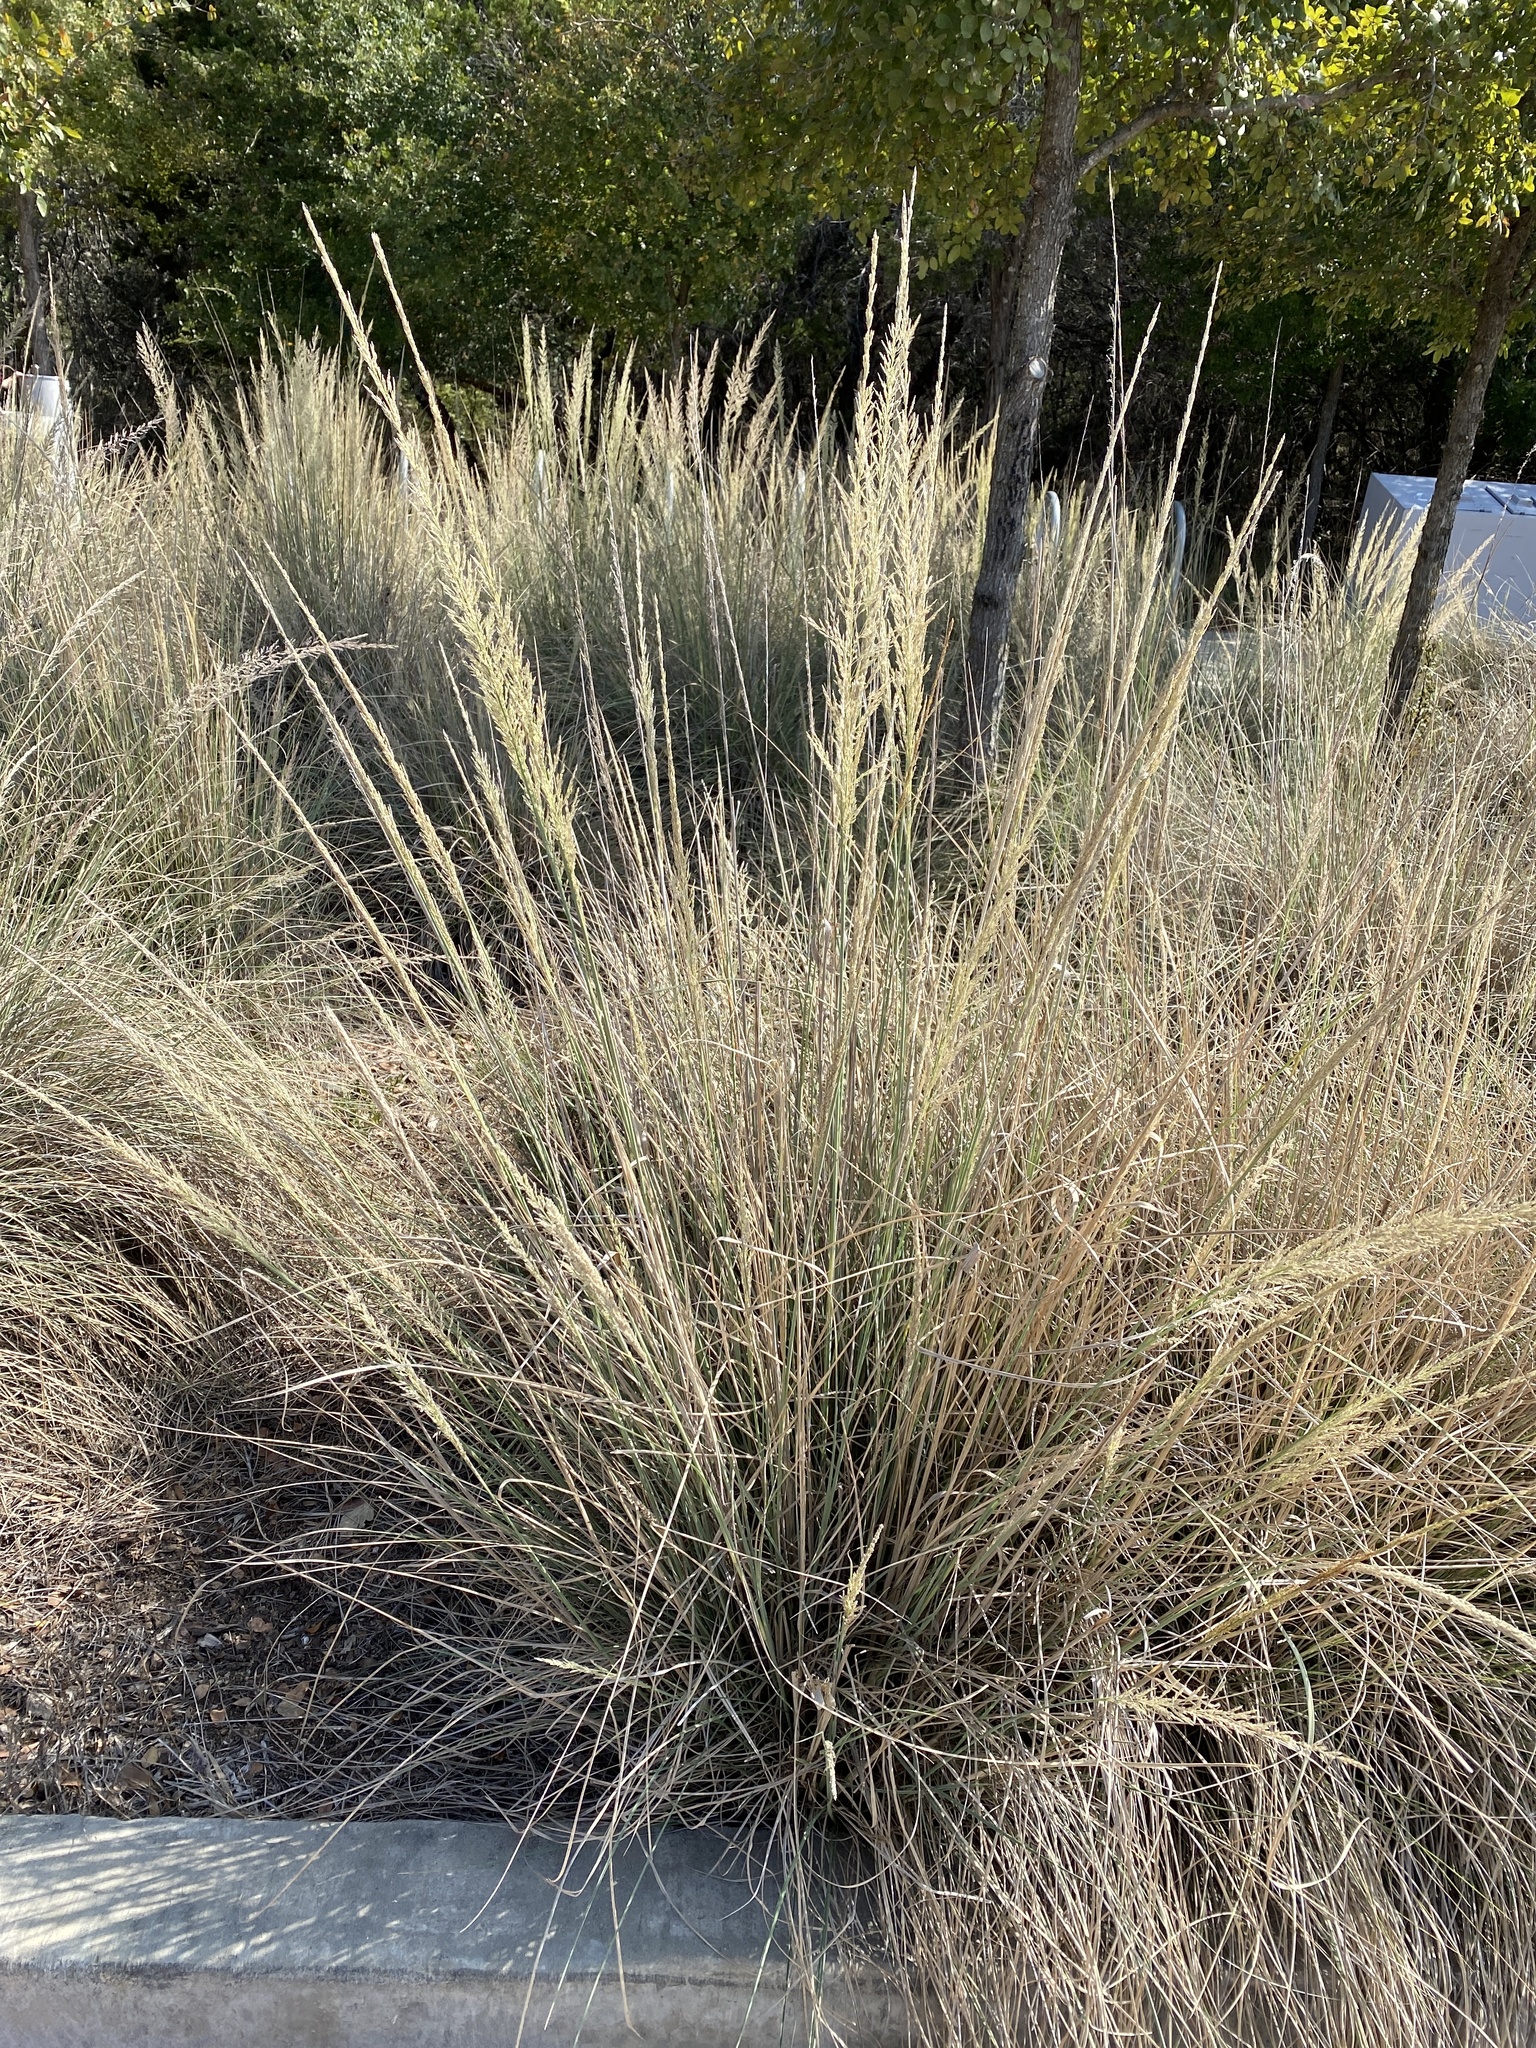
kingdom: Plantae
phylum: Tracheophyta
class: Liliopsida
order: Poales
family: Poaceae
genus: Muhlenbergia
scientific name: Muhlenbergia lindheimeri
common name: Lindheimer's muhly
